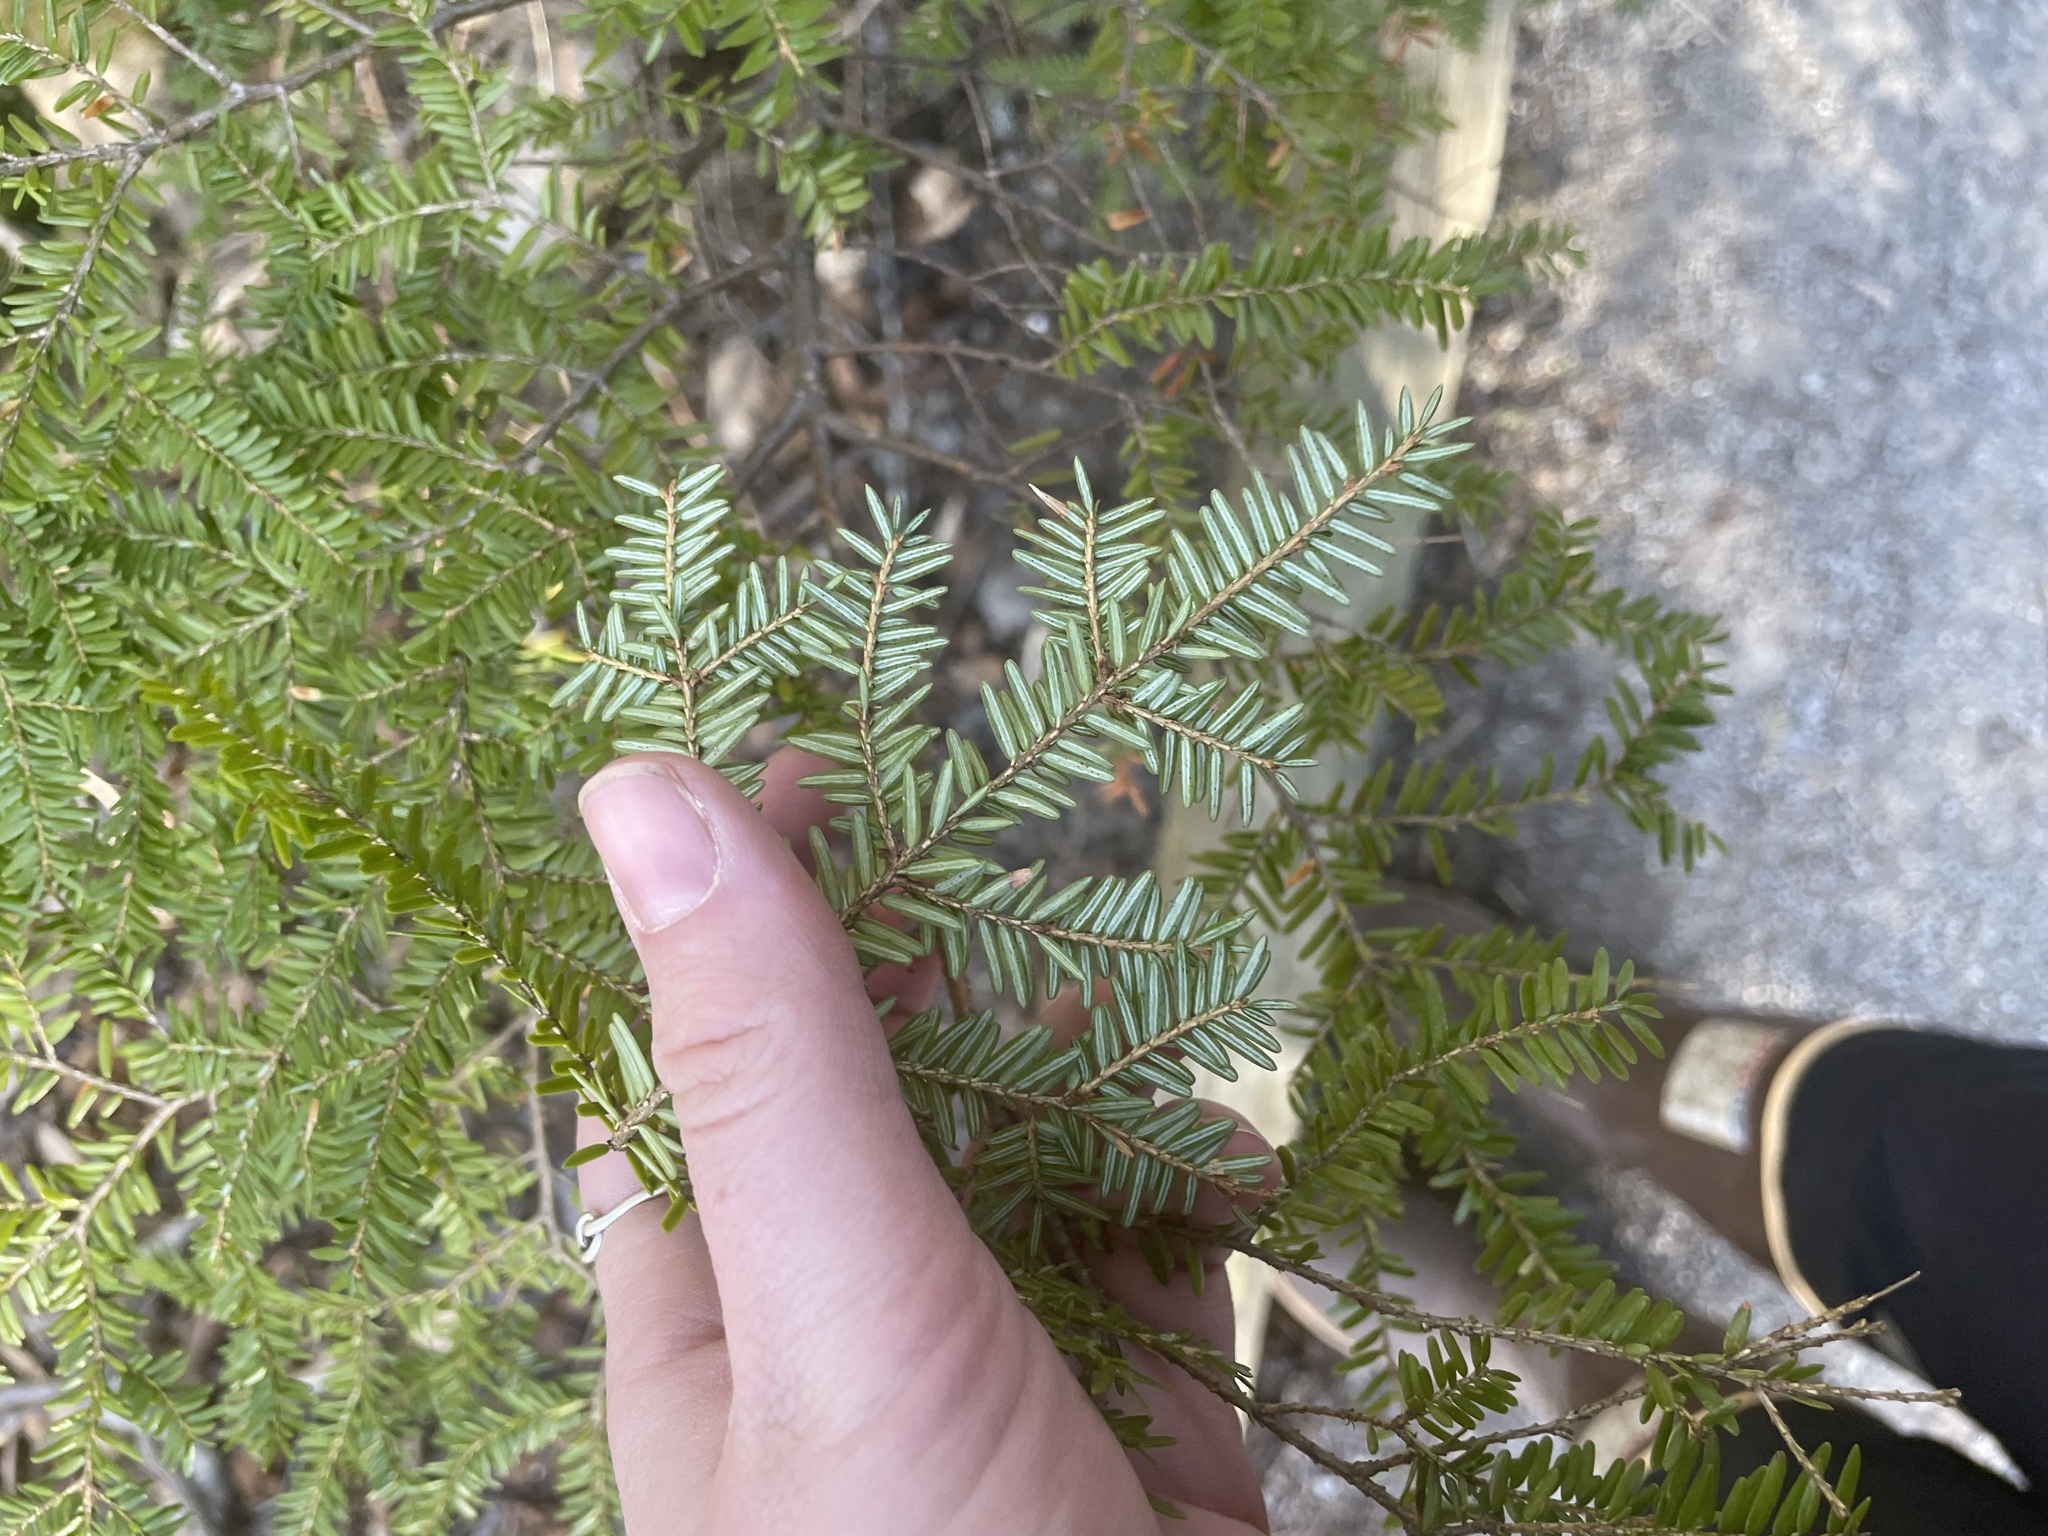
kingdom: Plantae
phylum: Tracheophyta
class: Pinopsida
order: Pinales
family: Pinaceae
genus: Tsuga
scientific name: Tsuga canadensis
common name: Eastern hemlock
